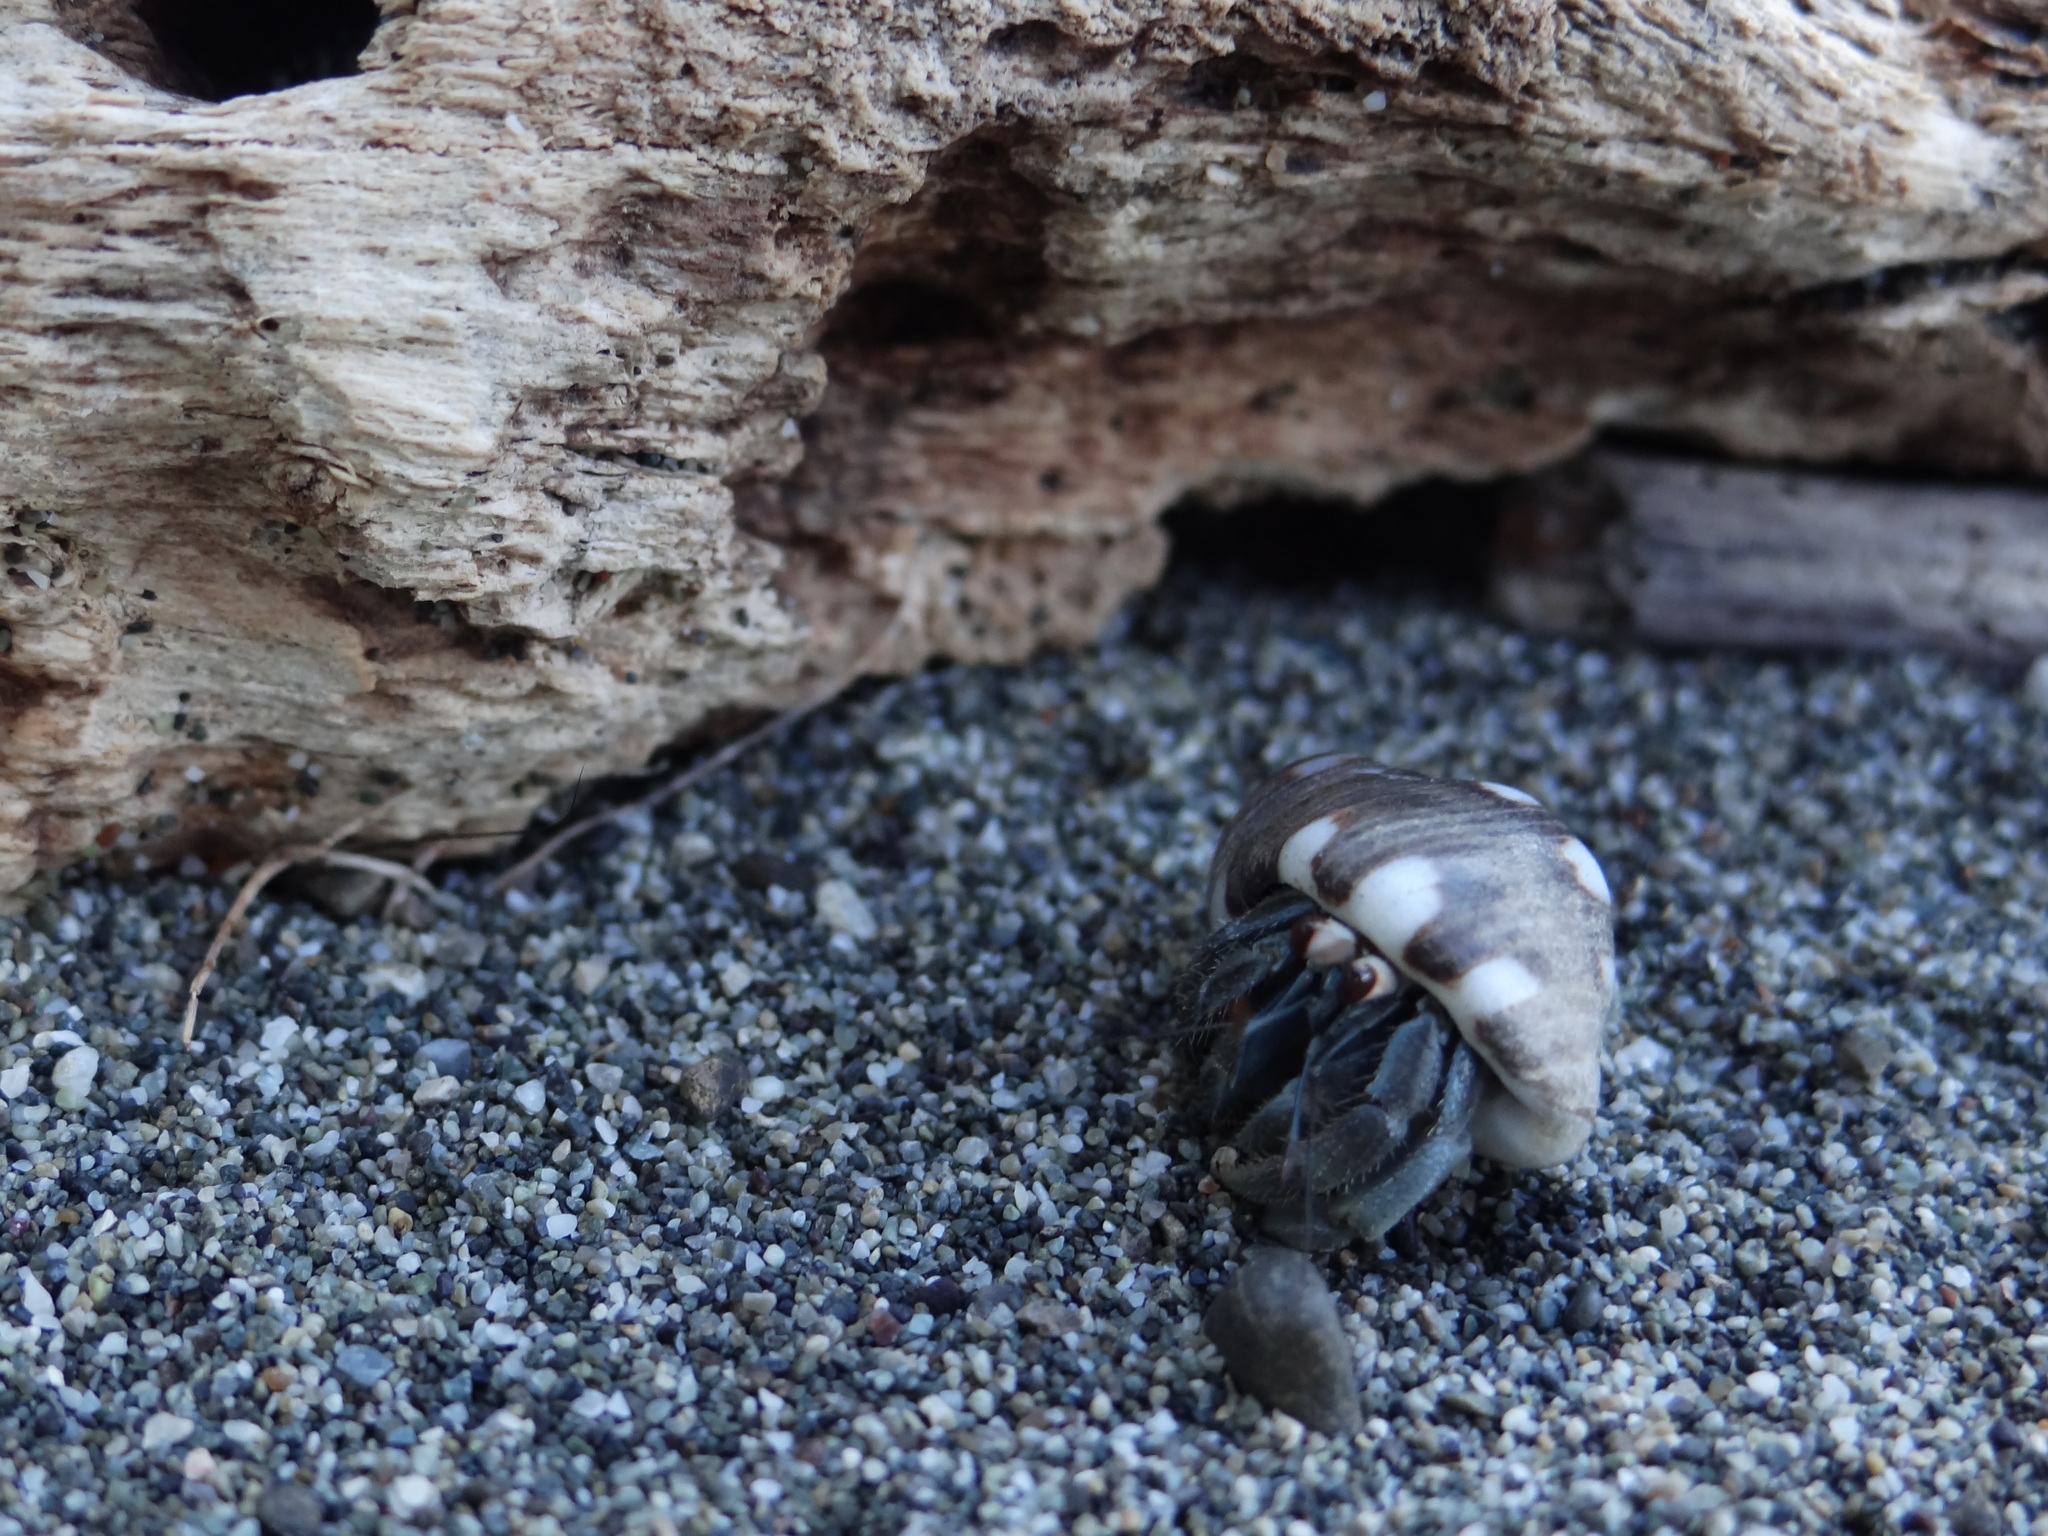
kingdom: Animalia
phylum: Arthropoda
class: Malacostraca
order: Decapoda
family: Coenobitidae
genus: Coenobita
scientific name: Coenobita compressus
